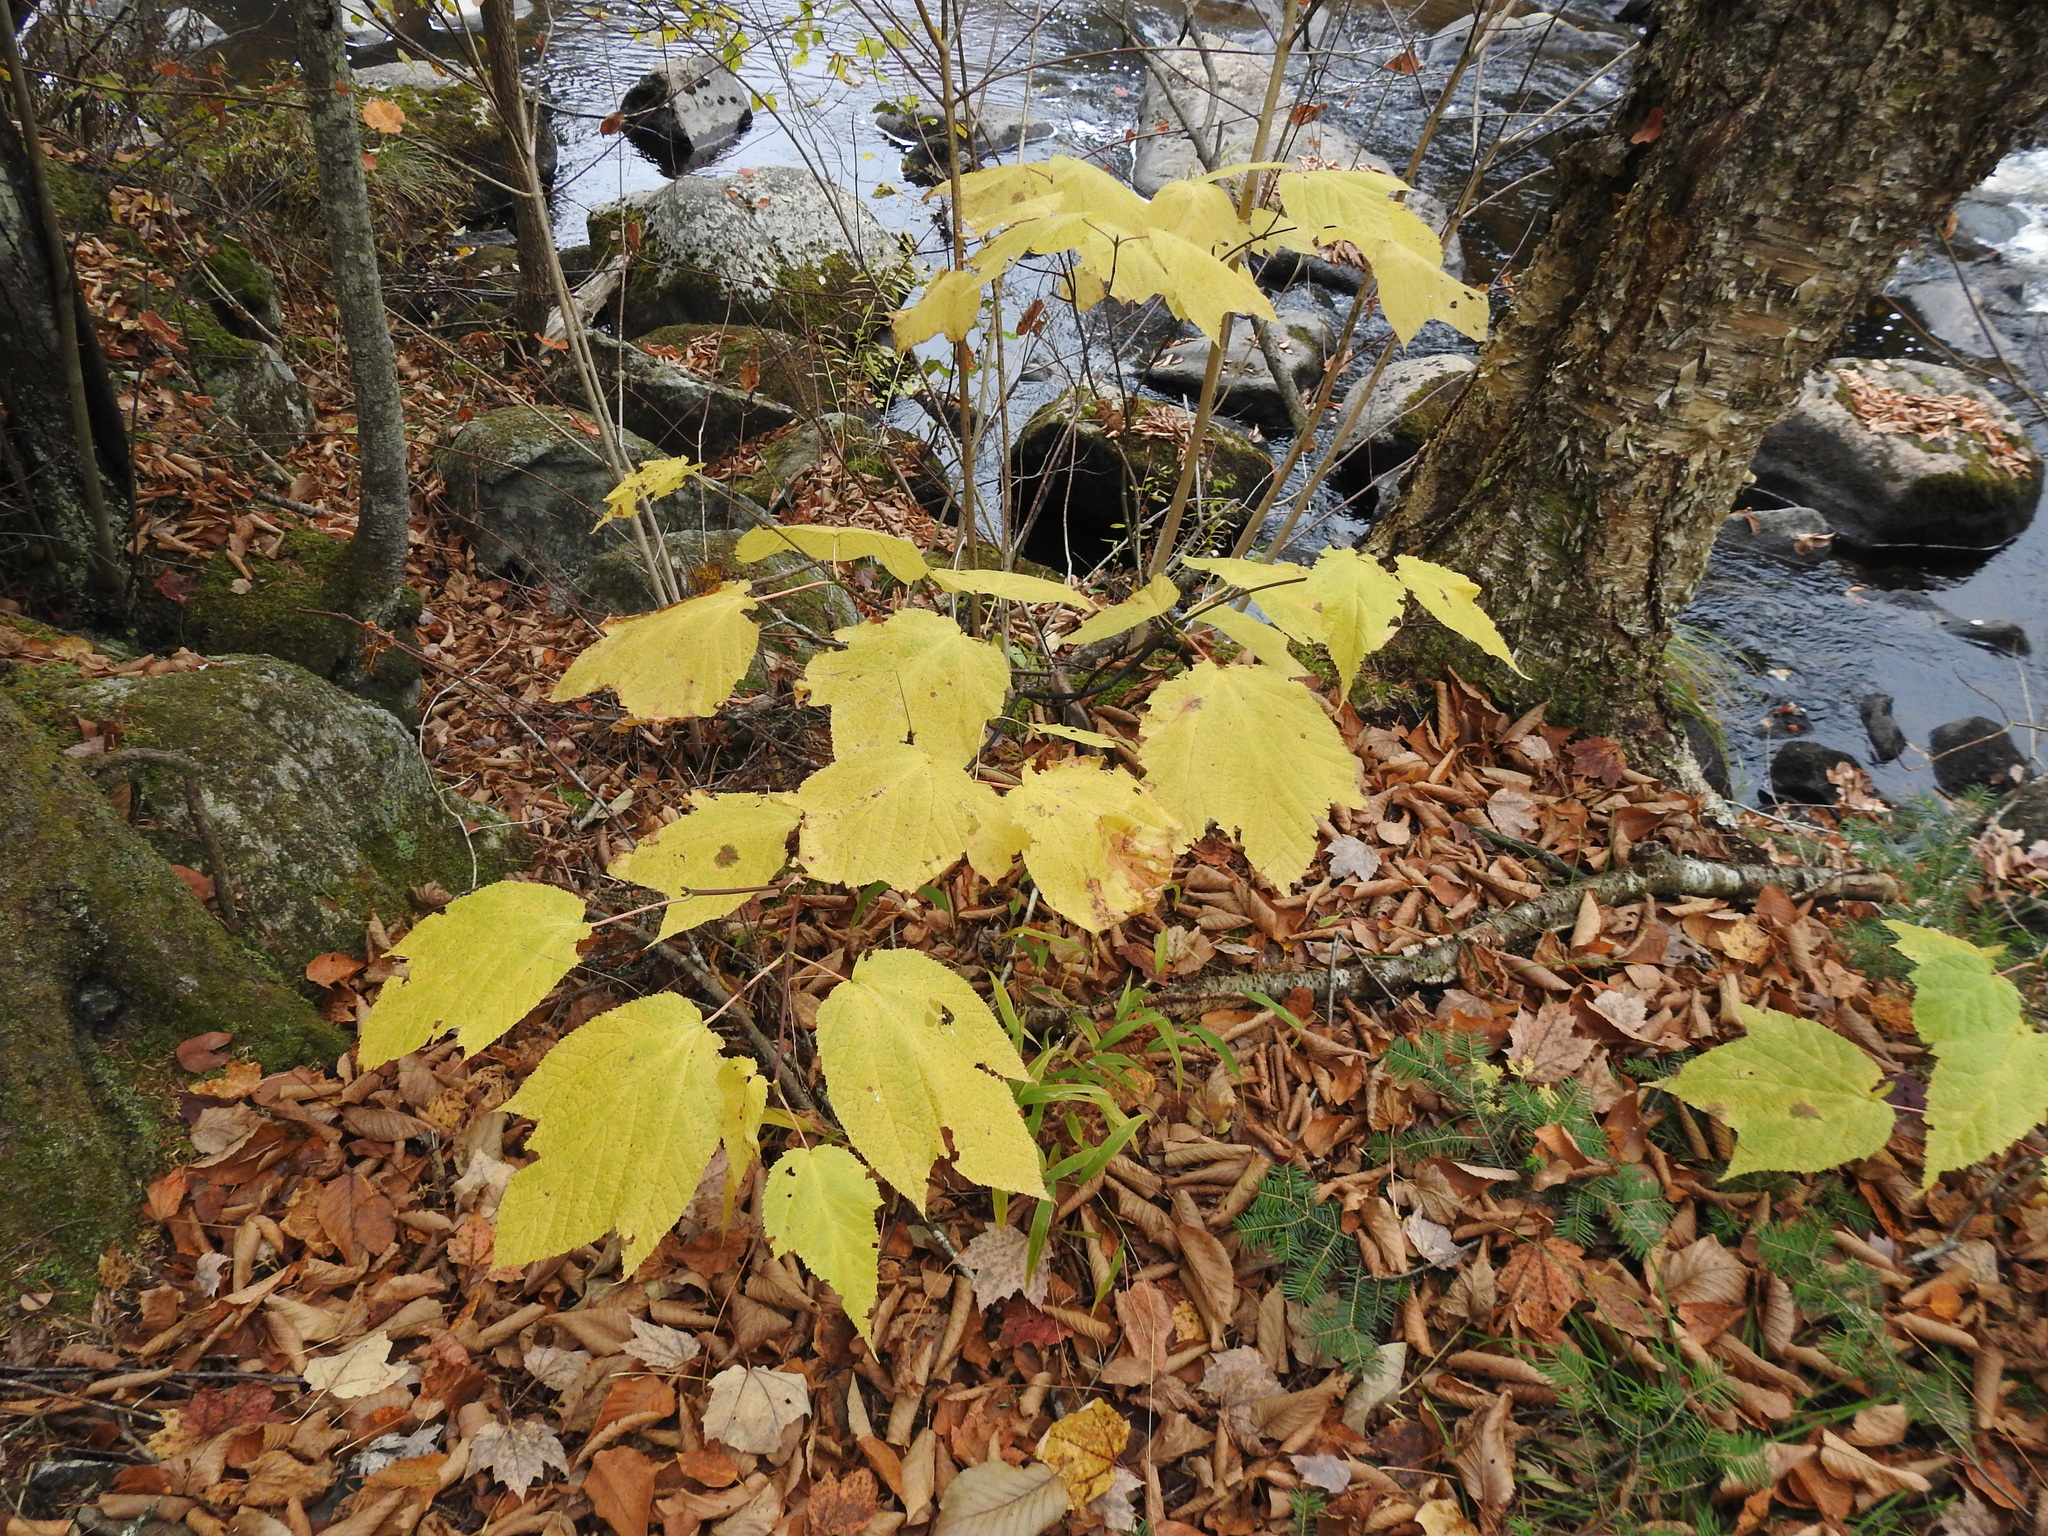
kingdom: Plantae
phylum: Tracheophyta
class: Magnoliopsida
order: Sapindales
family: Sapindaceae
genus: Acer
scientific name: Acer pensylvanicum
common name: Moosewood
